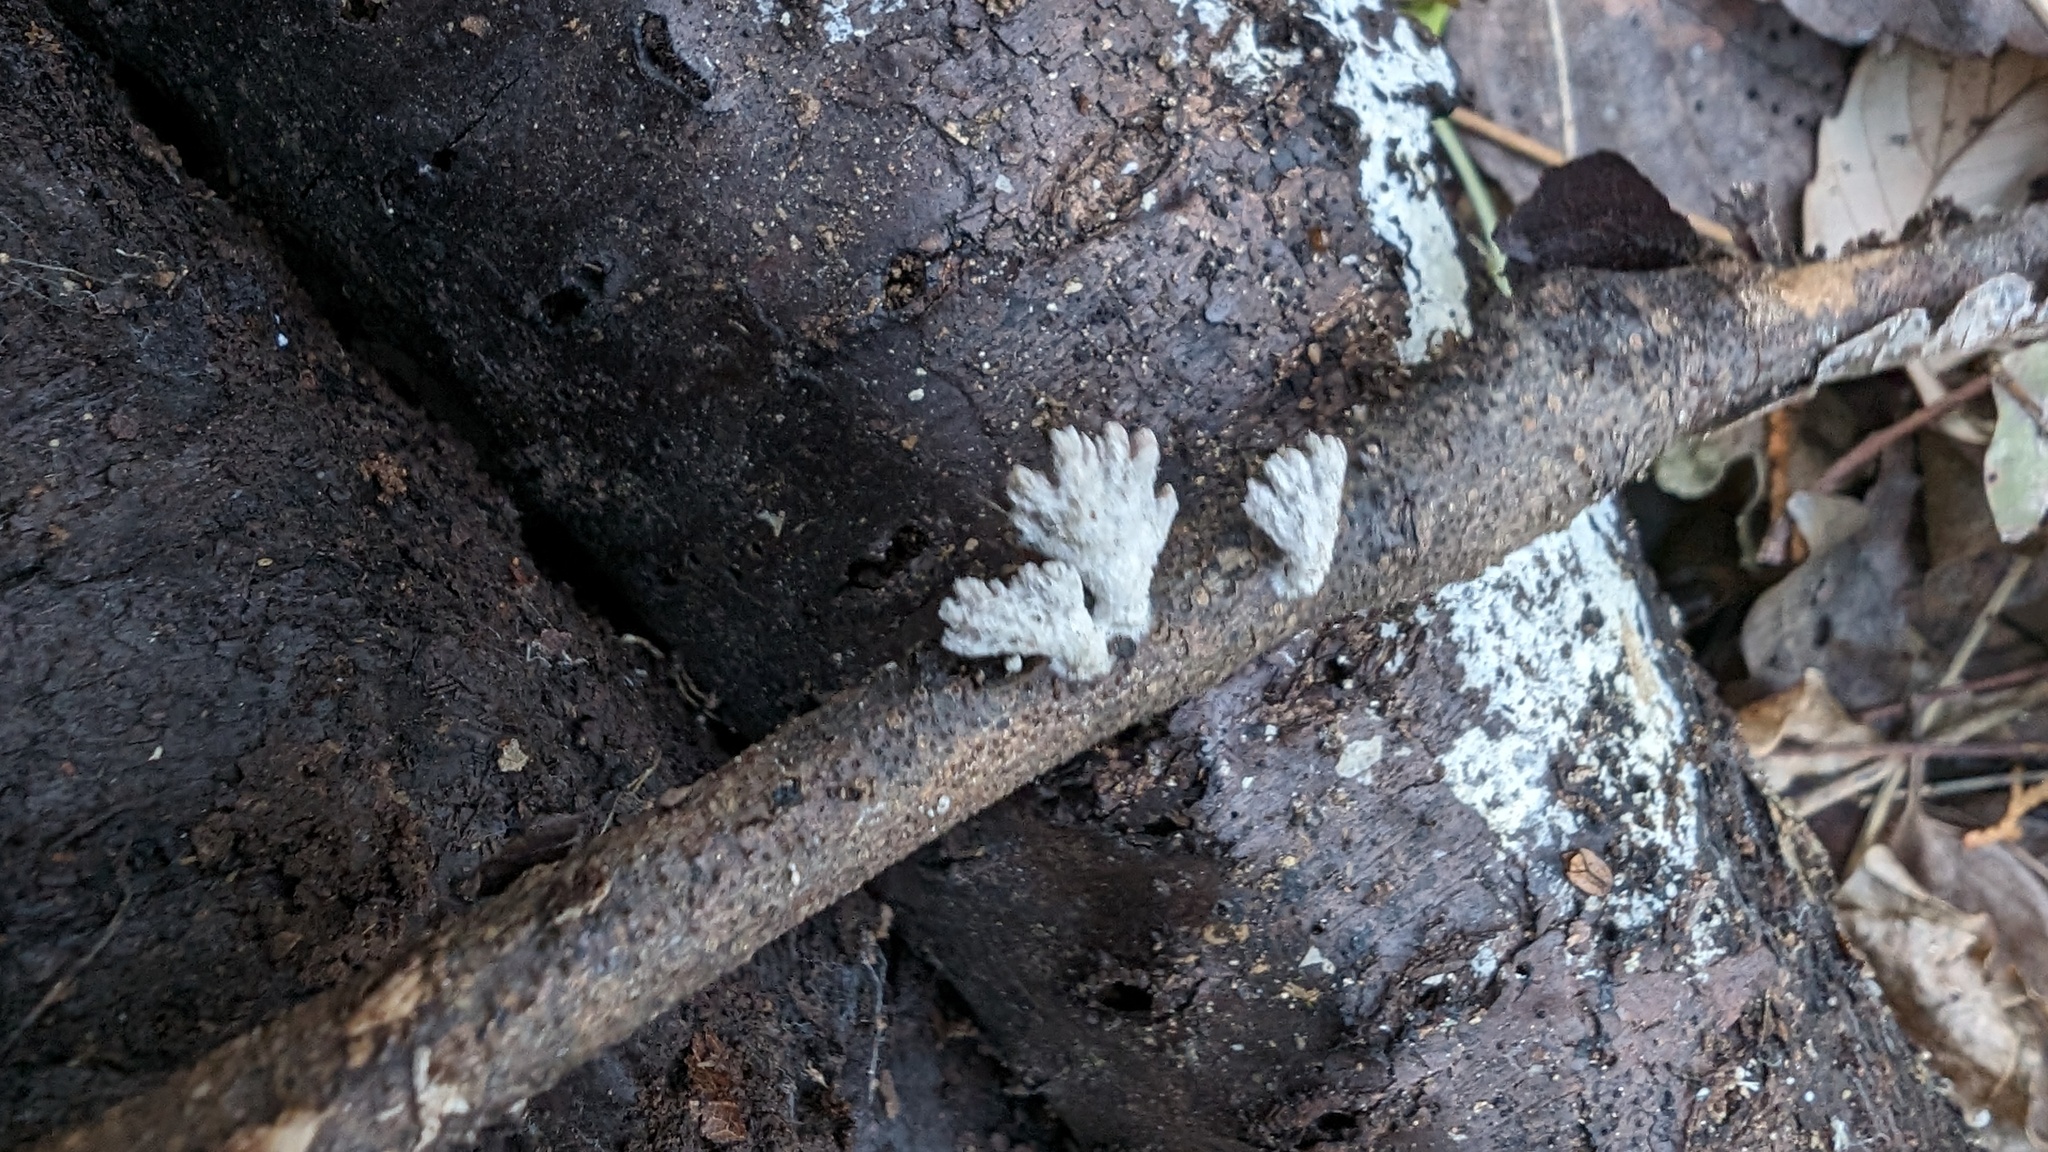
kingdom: Fungi
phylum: Basidiomycota
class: Agaricomycetes
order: Agaricales
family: Schizophyllaceae
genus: Schizophyllum
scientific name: Schizophyllum commune
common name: Common porecrust
